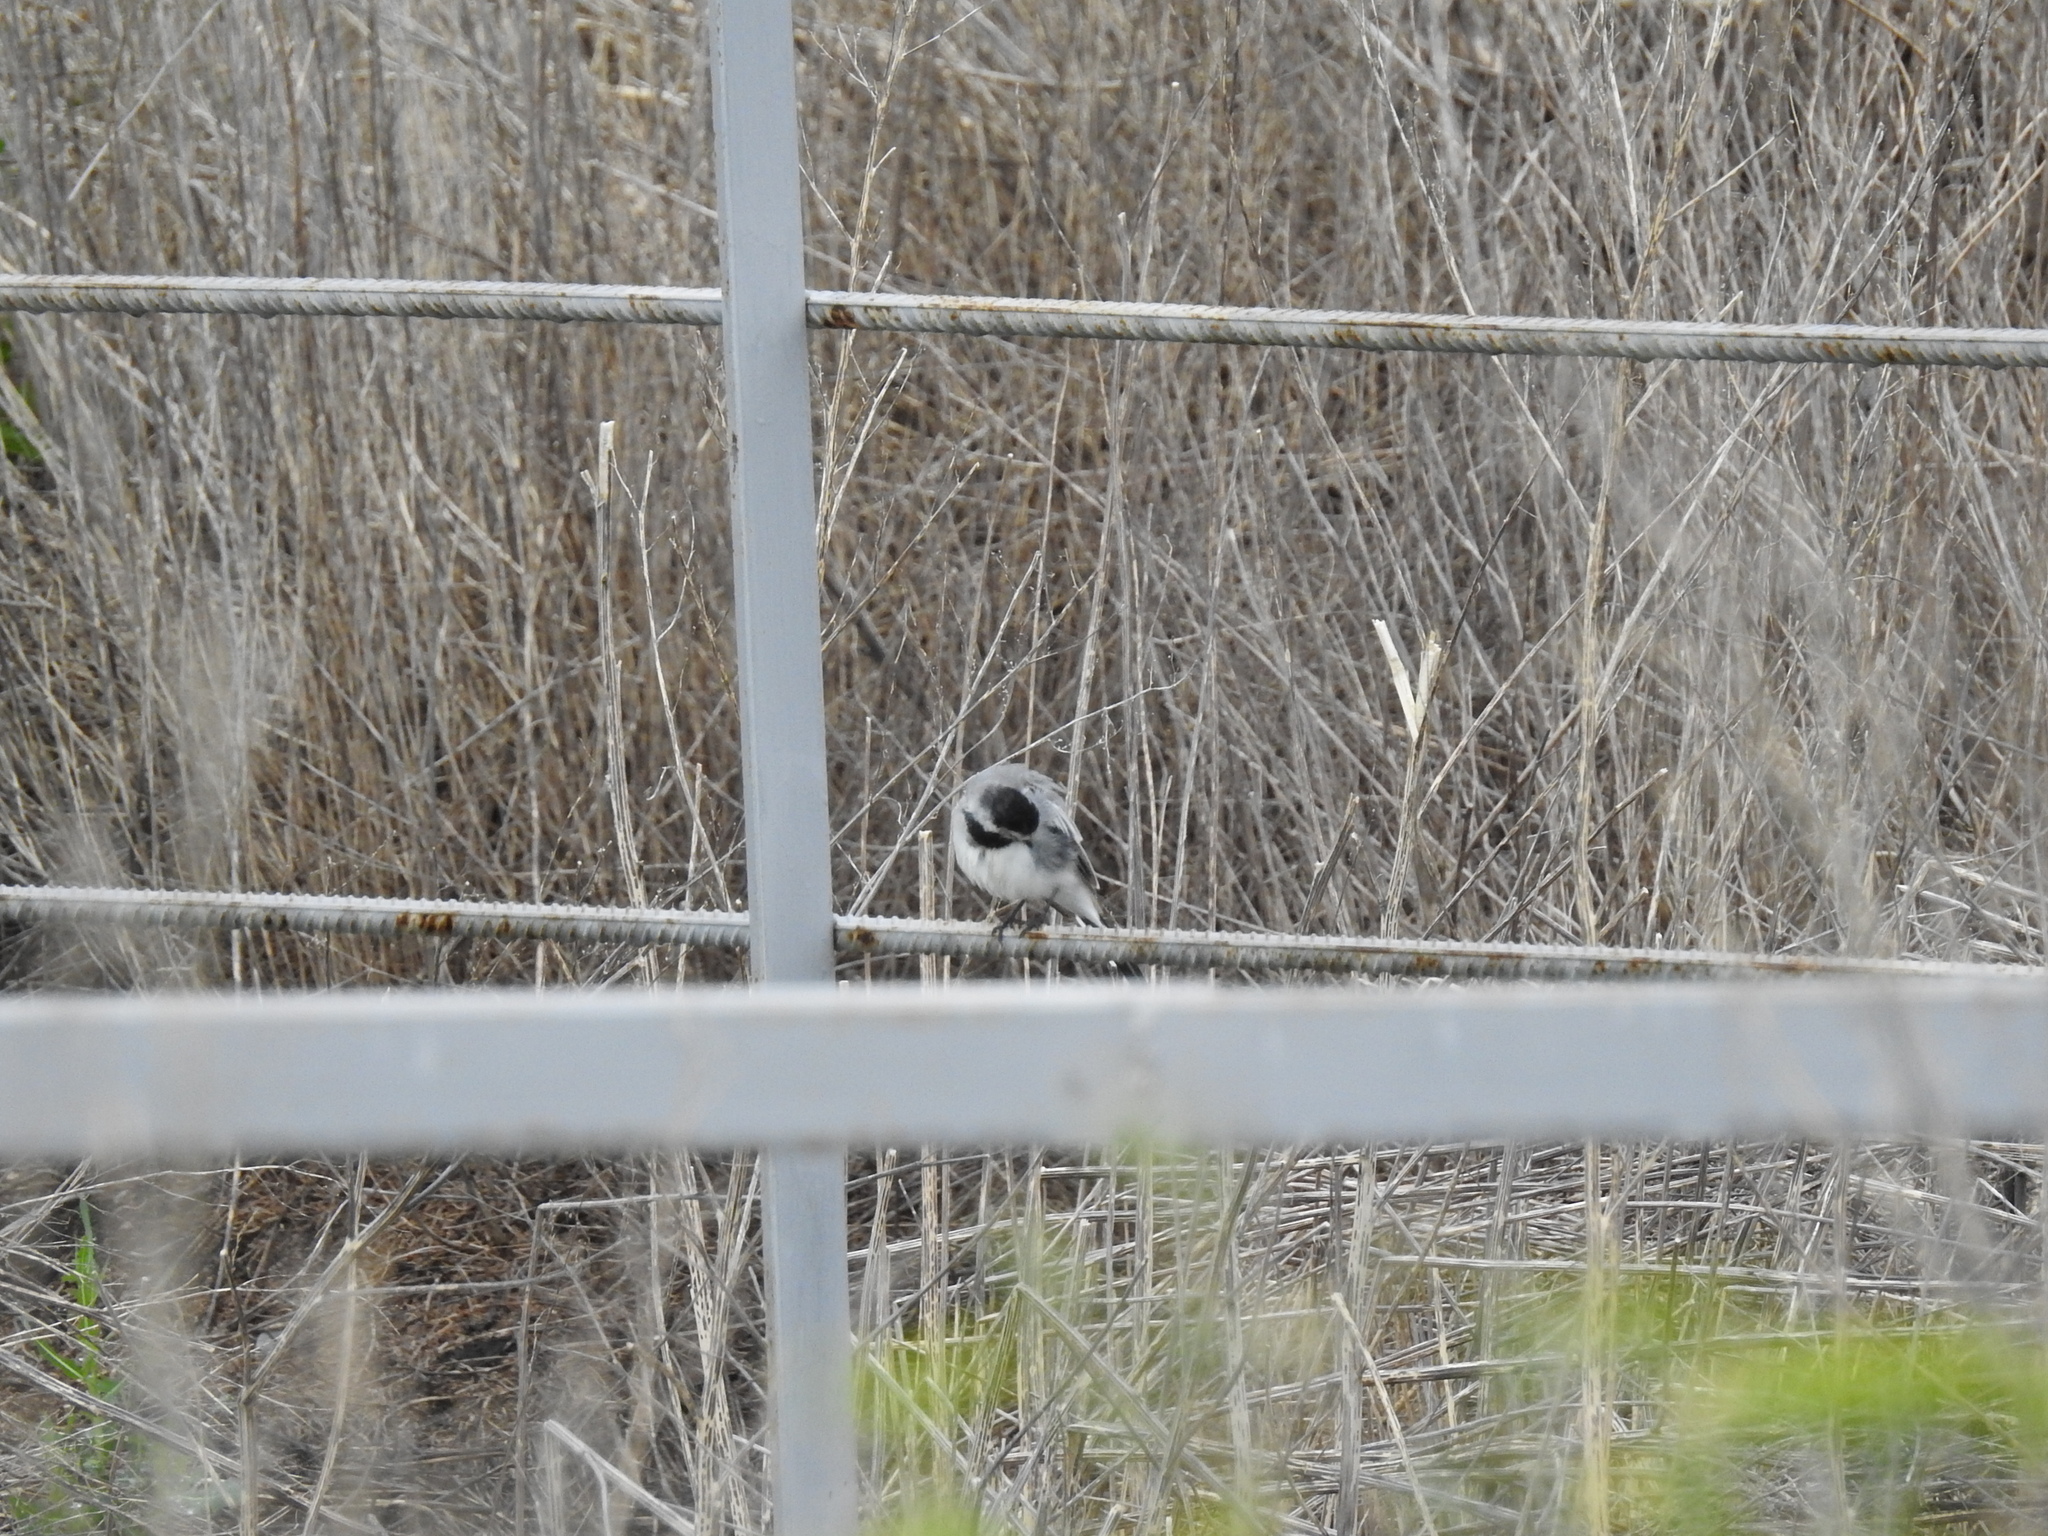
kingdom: Animalia
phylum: Chordata
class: Aves
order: Passeriformes
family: Motacillidae
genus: Motacilla
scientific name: Motacilla alba
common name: White wagtail
